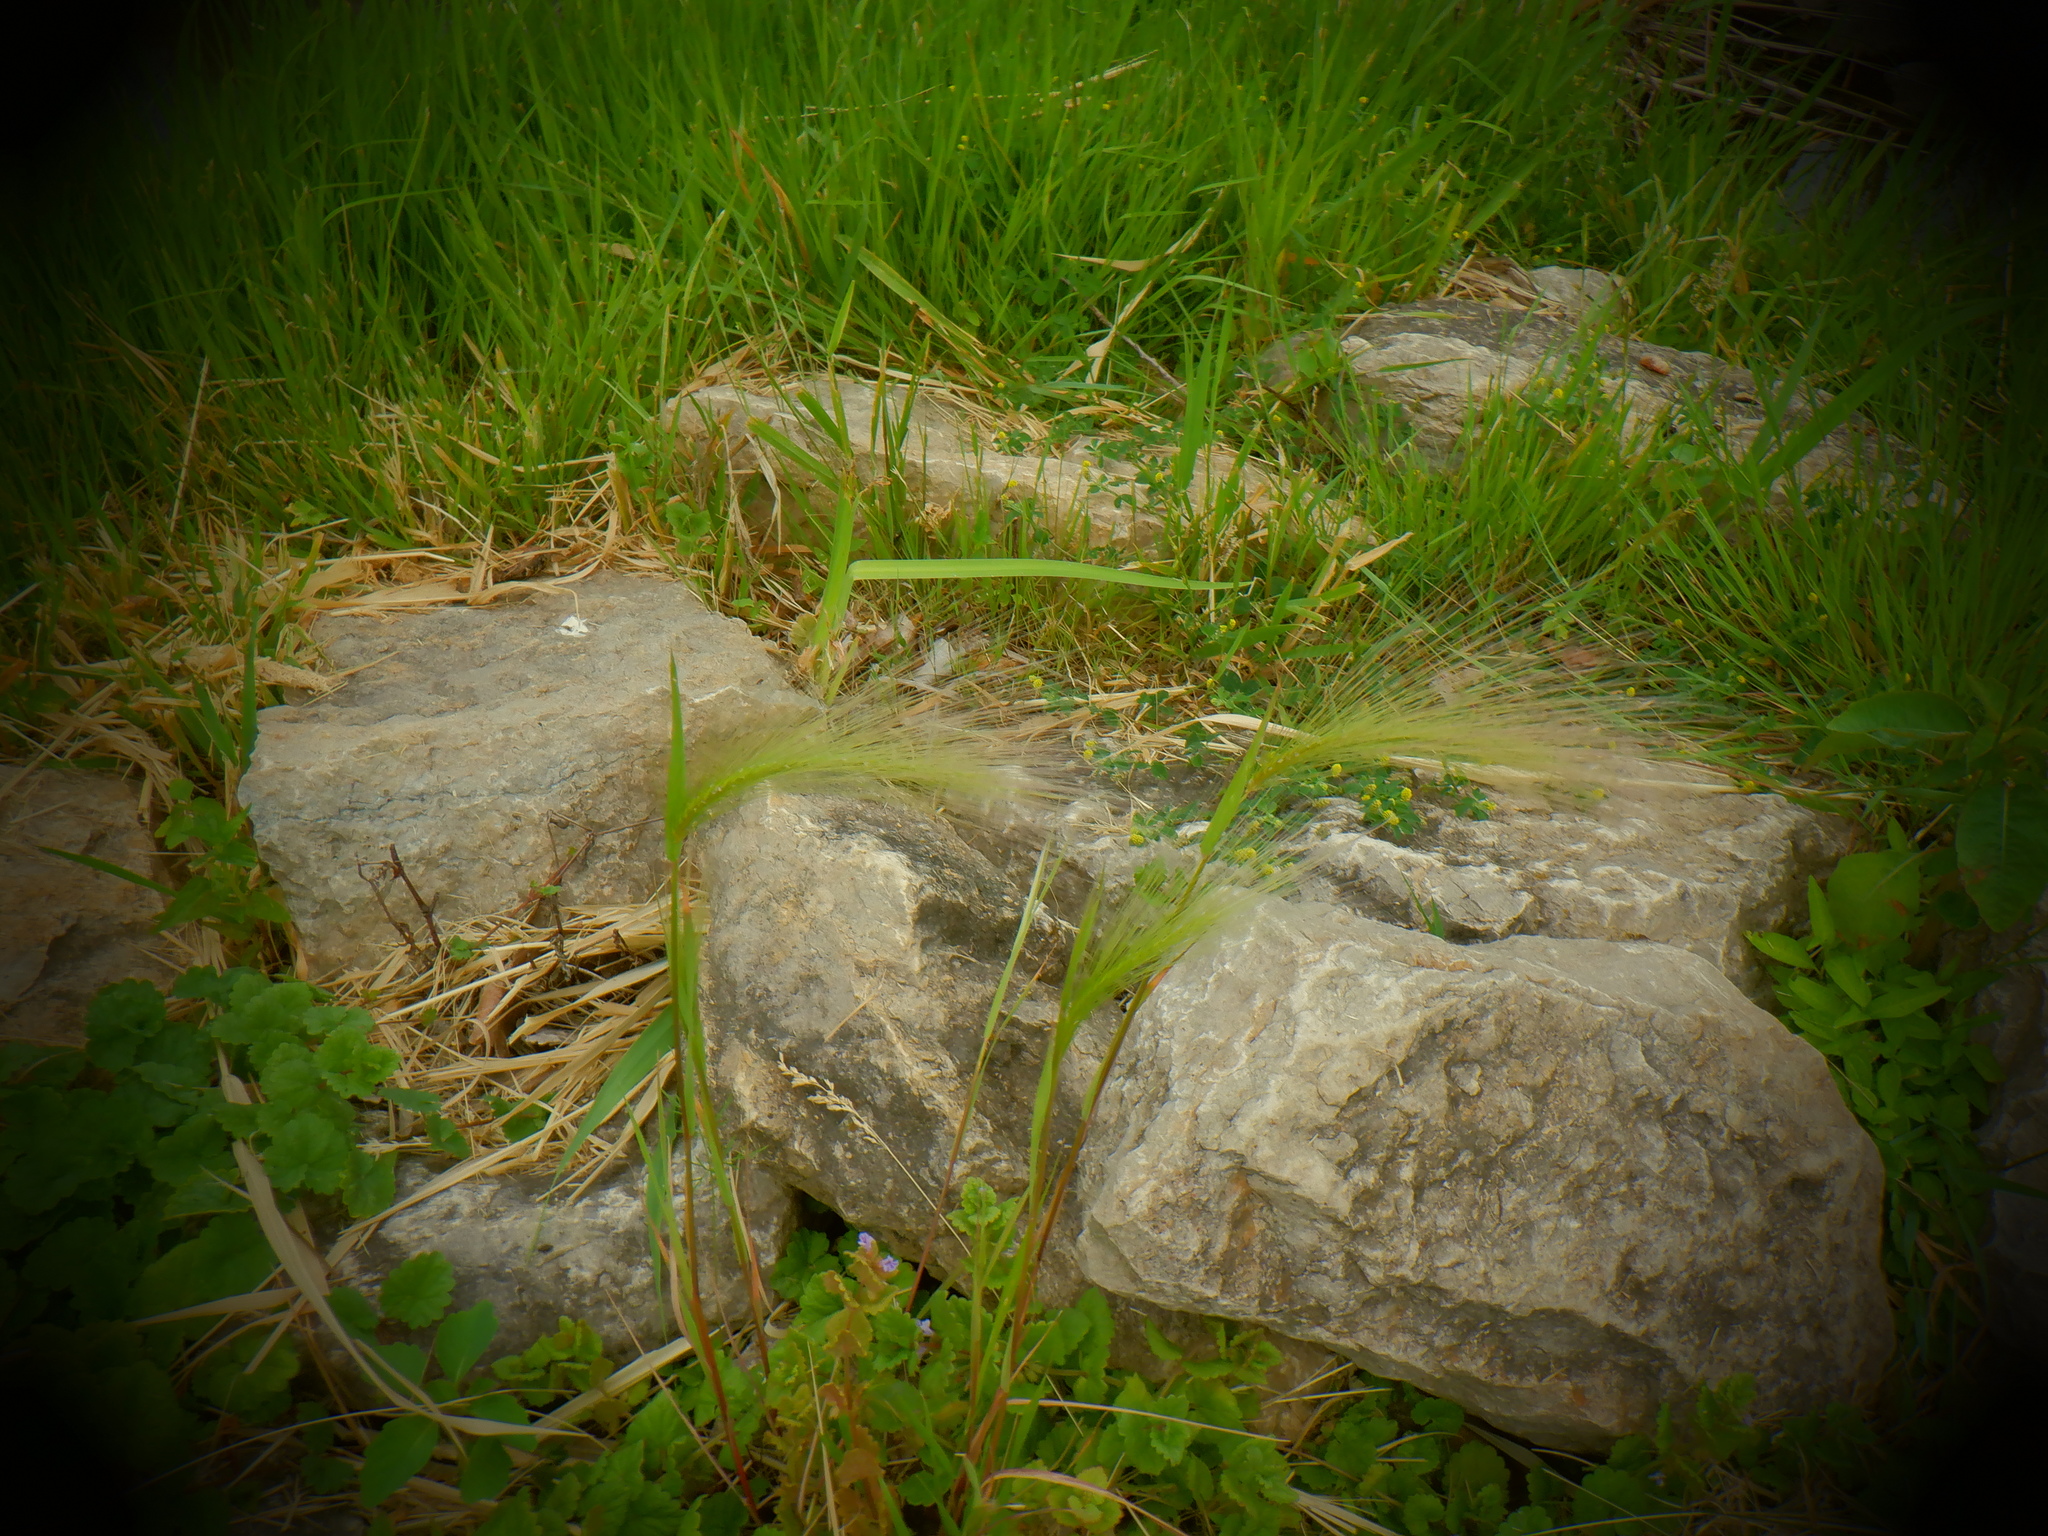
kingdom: Plantae
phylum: Tracheophyta
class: Liliopsida
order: Poales
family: Poaceae
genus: Hordeum
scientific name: Hordeum jubatum
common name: Foxtail barley
